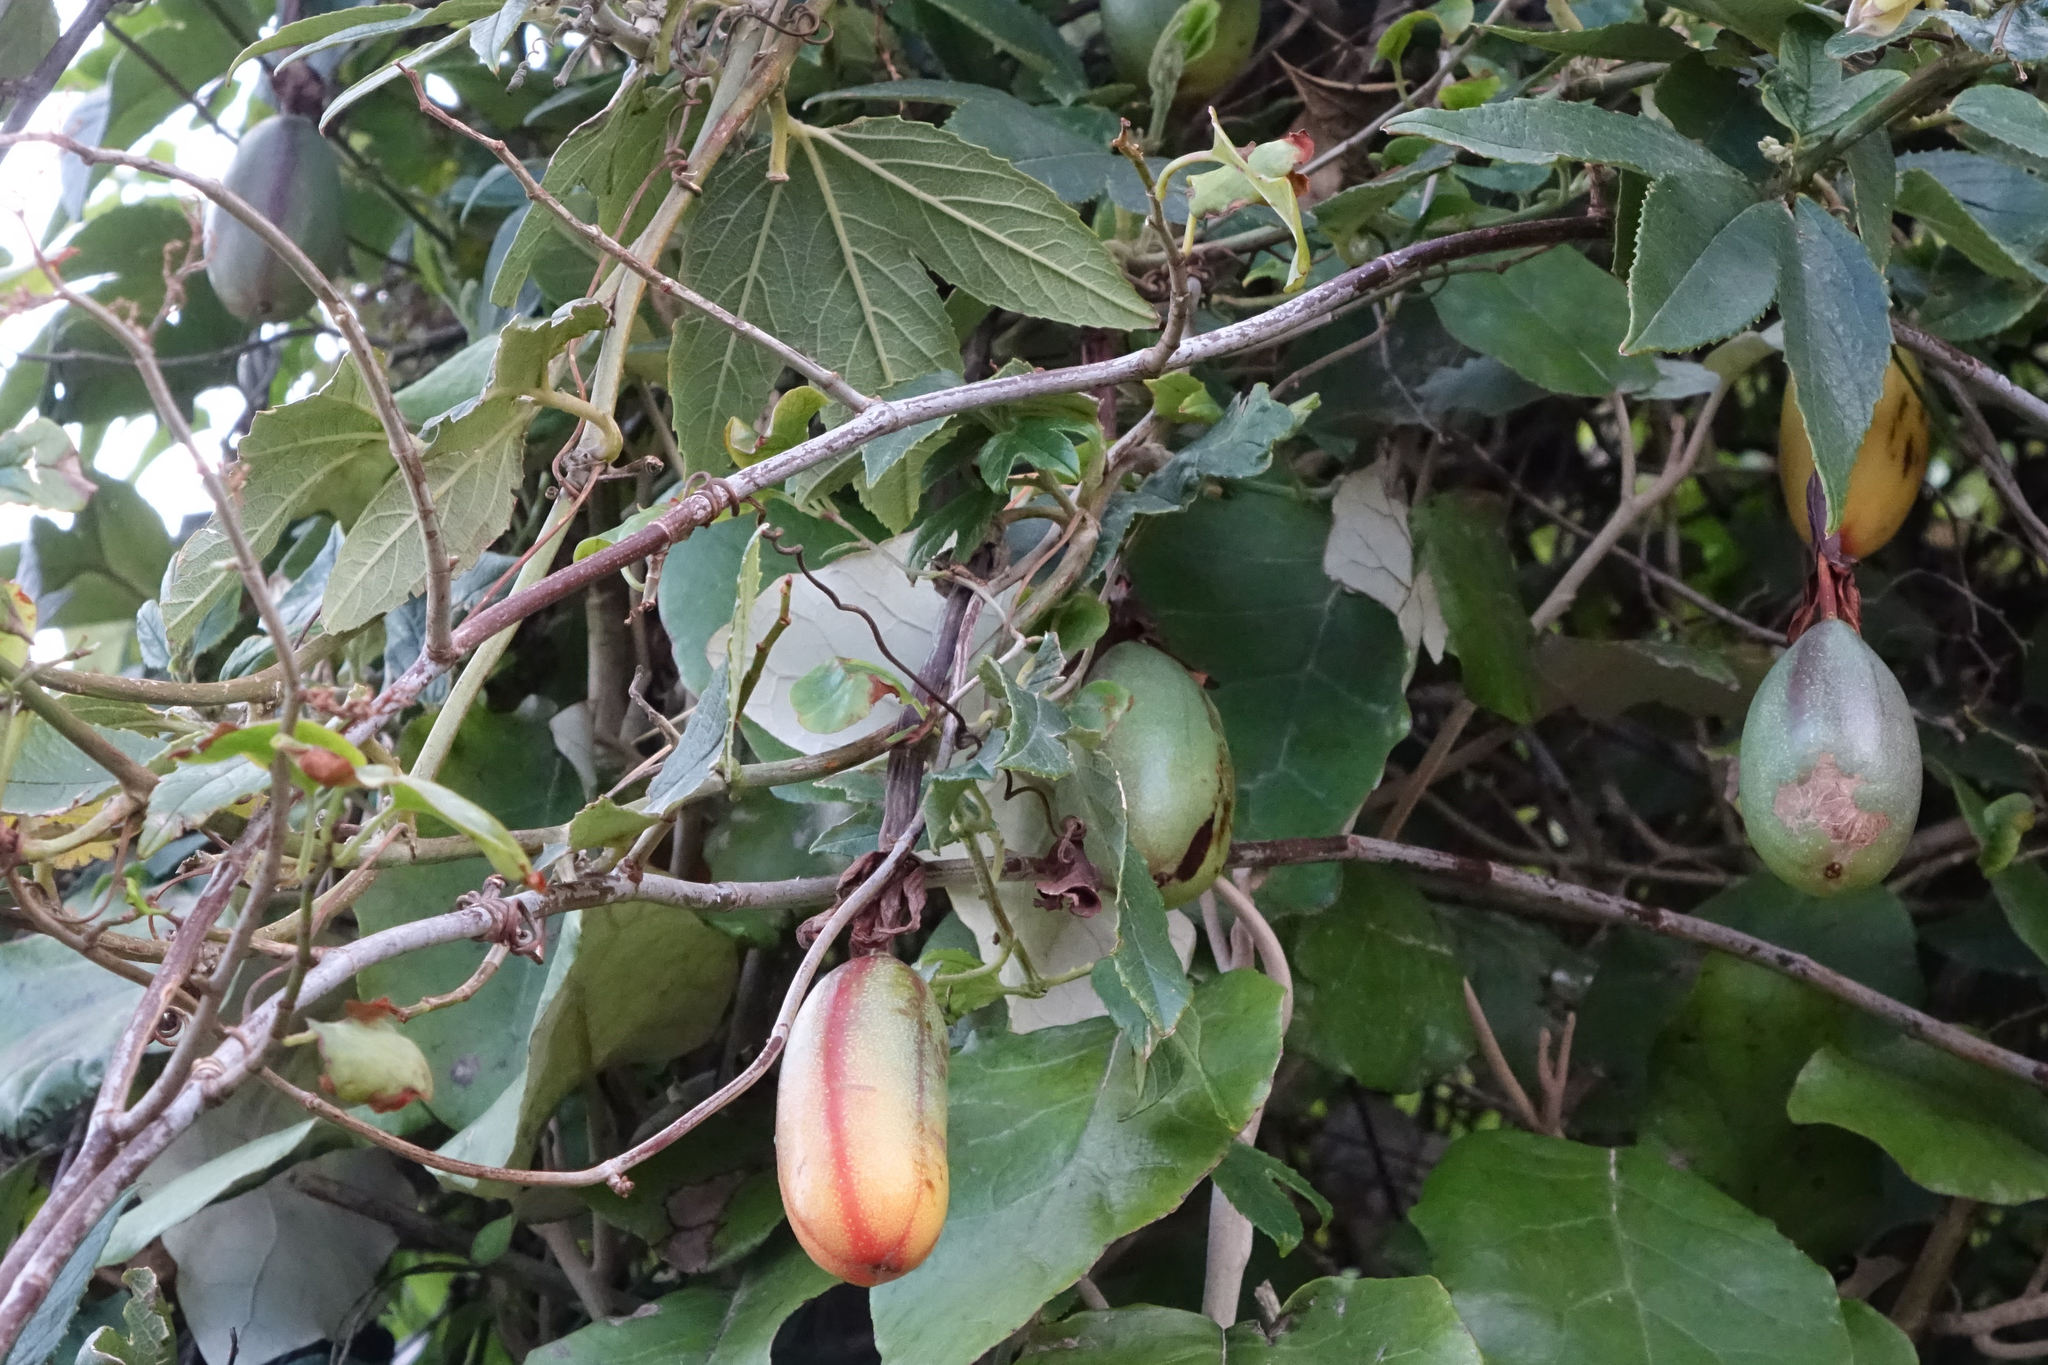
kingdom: Plantae
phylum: Tracheophyta
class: Magnoliopsida
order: Malpighiales
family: Passifloraceae
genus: Passiflora
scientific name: Passiflora tripartita
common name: Banana poka
